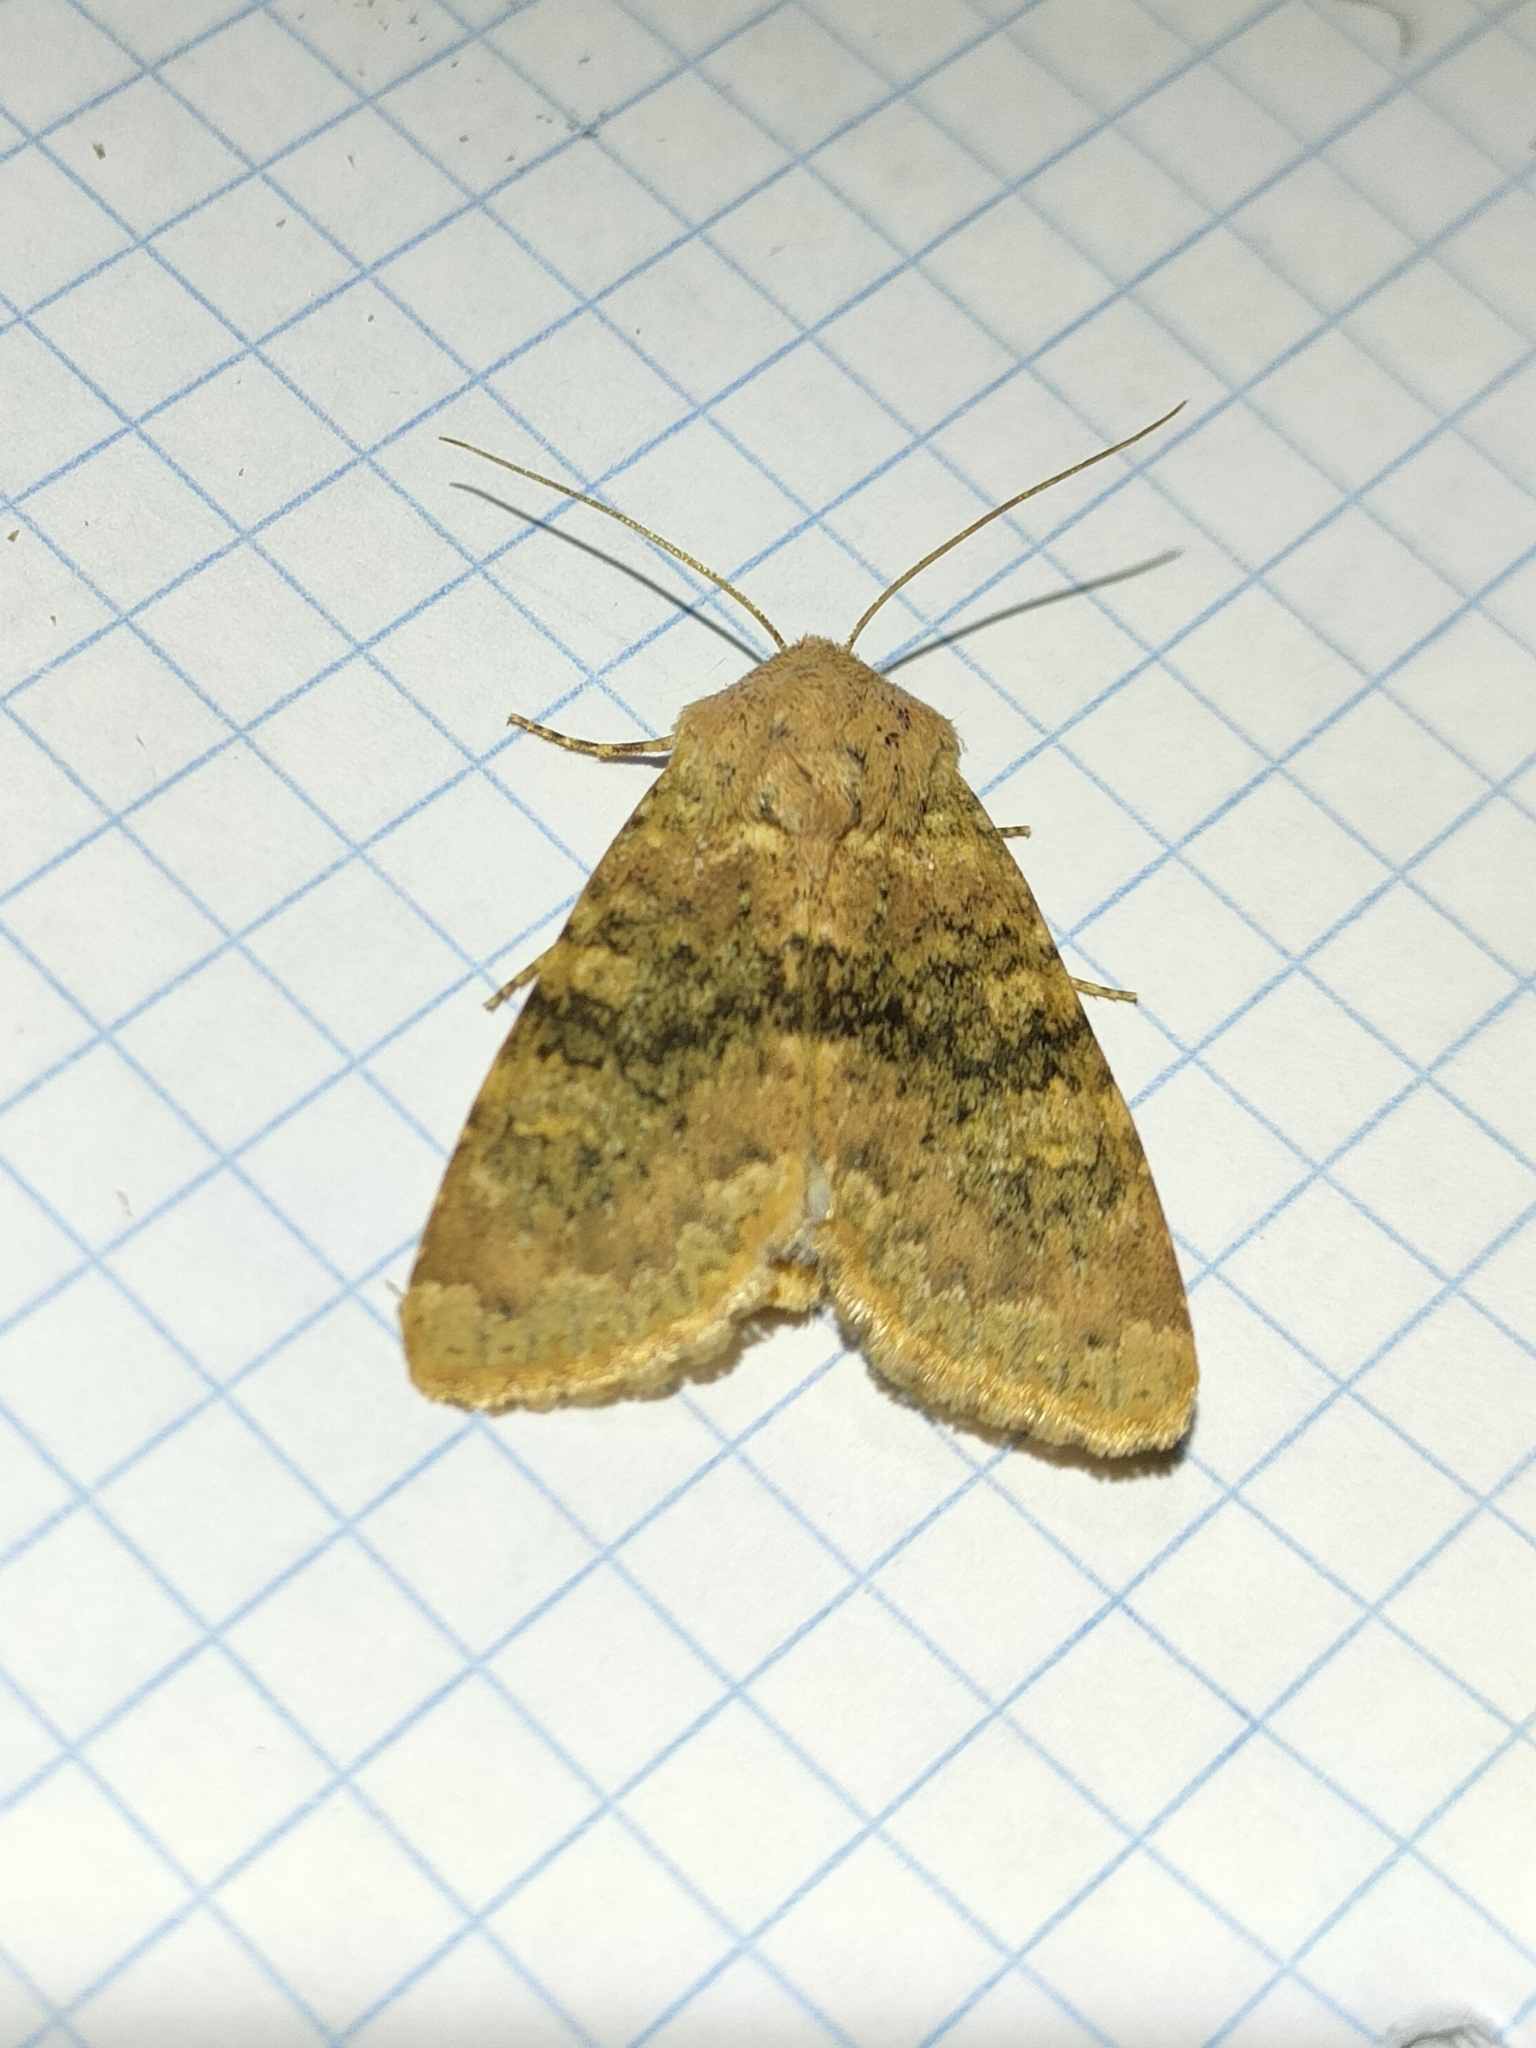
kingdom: Animalia
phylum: Arthropoda
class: Insecta
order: Lepidoptera
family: Noctuidae
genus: Polymixis
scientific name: Polymixis argillaceago
